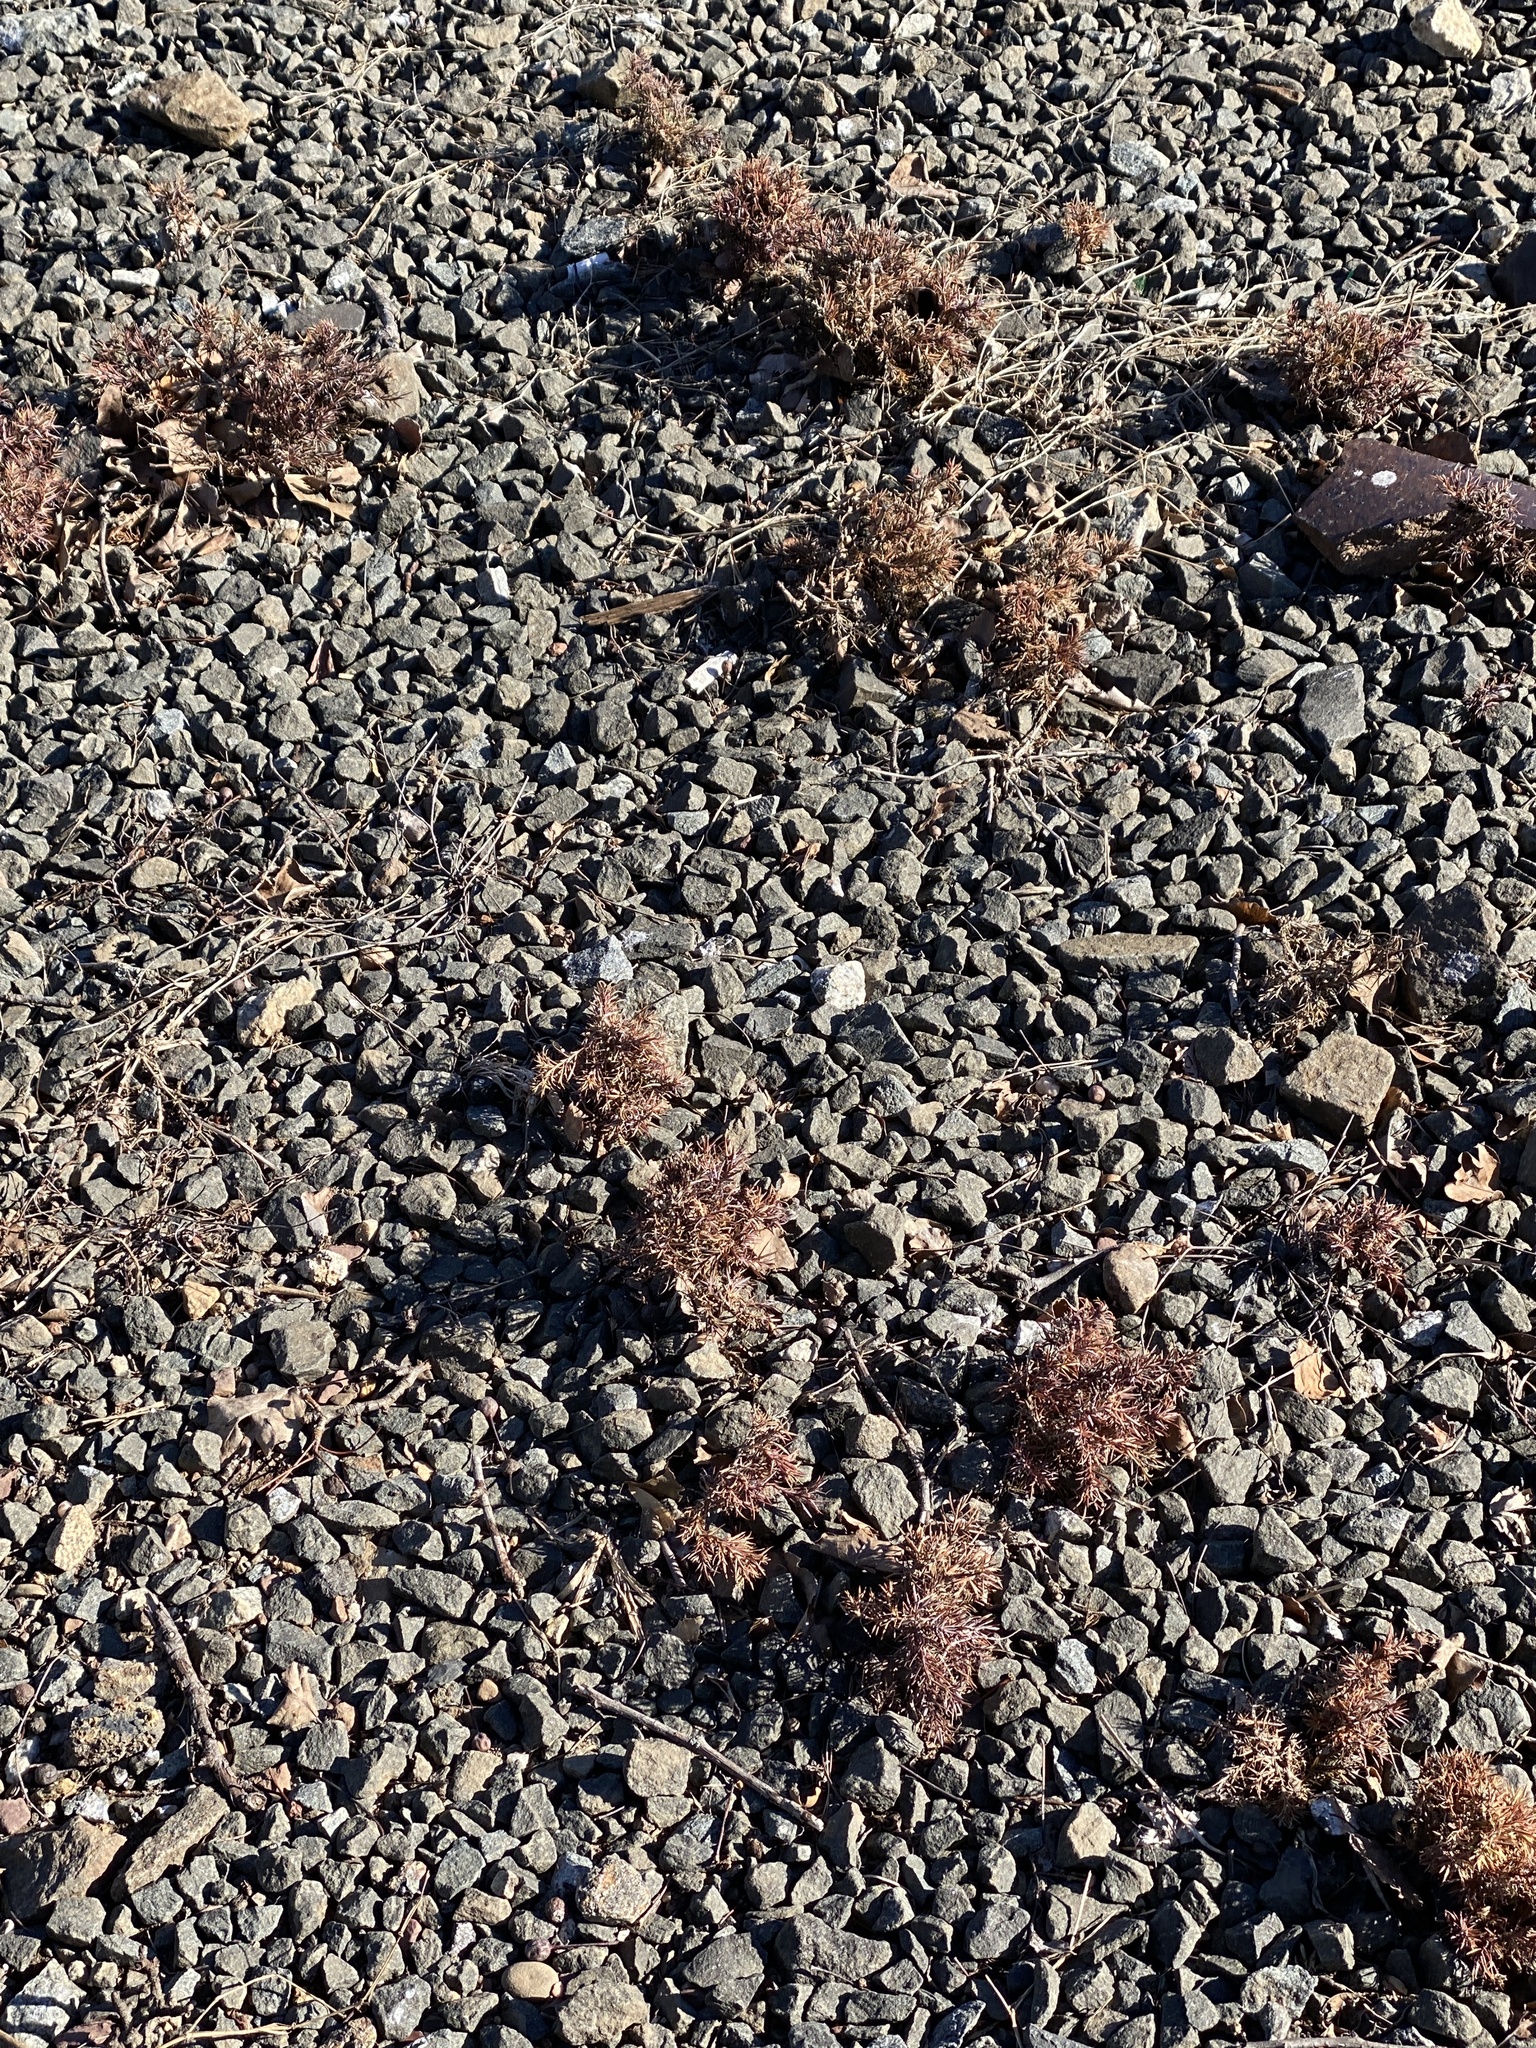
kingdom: Plantae
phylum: Tracheophyta
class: Pinopsida
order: Pinales
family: Cupressaceae
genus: Juniperus
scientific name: Juniperus virginiana
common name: Red juniper
